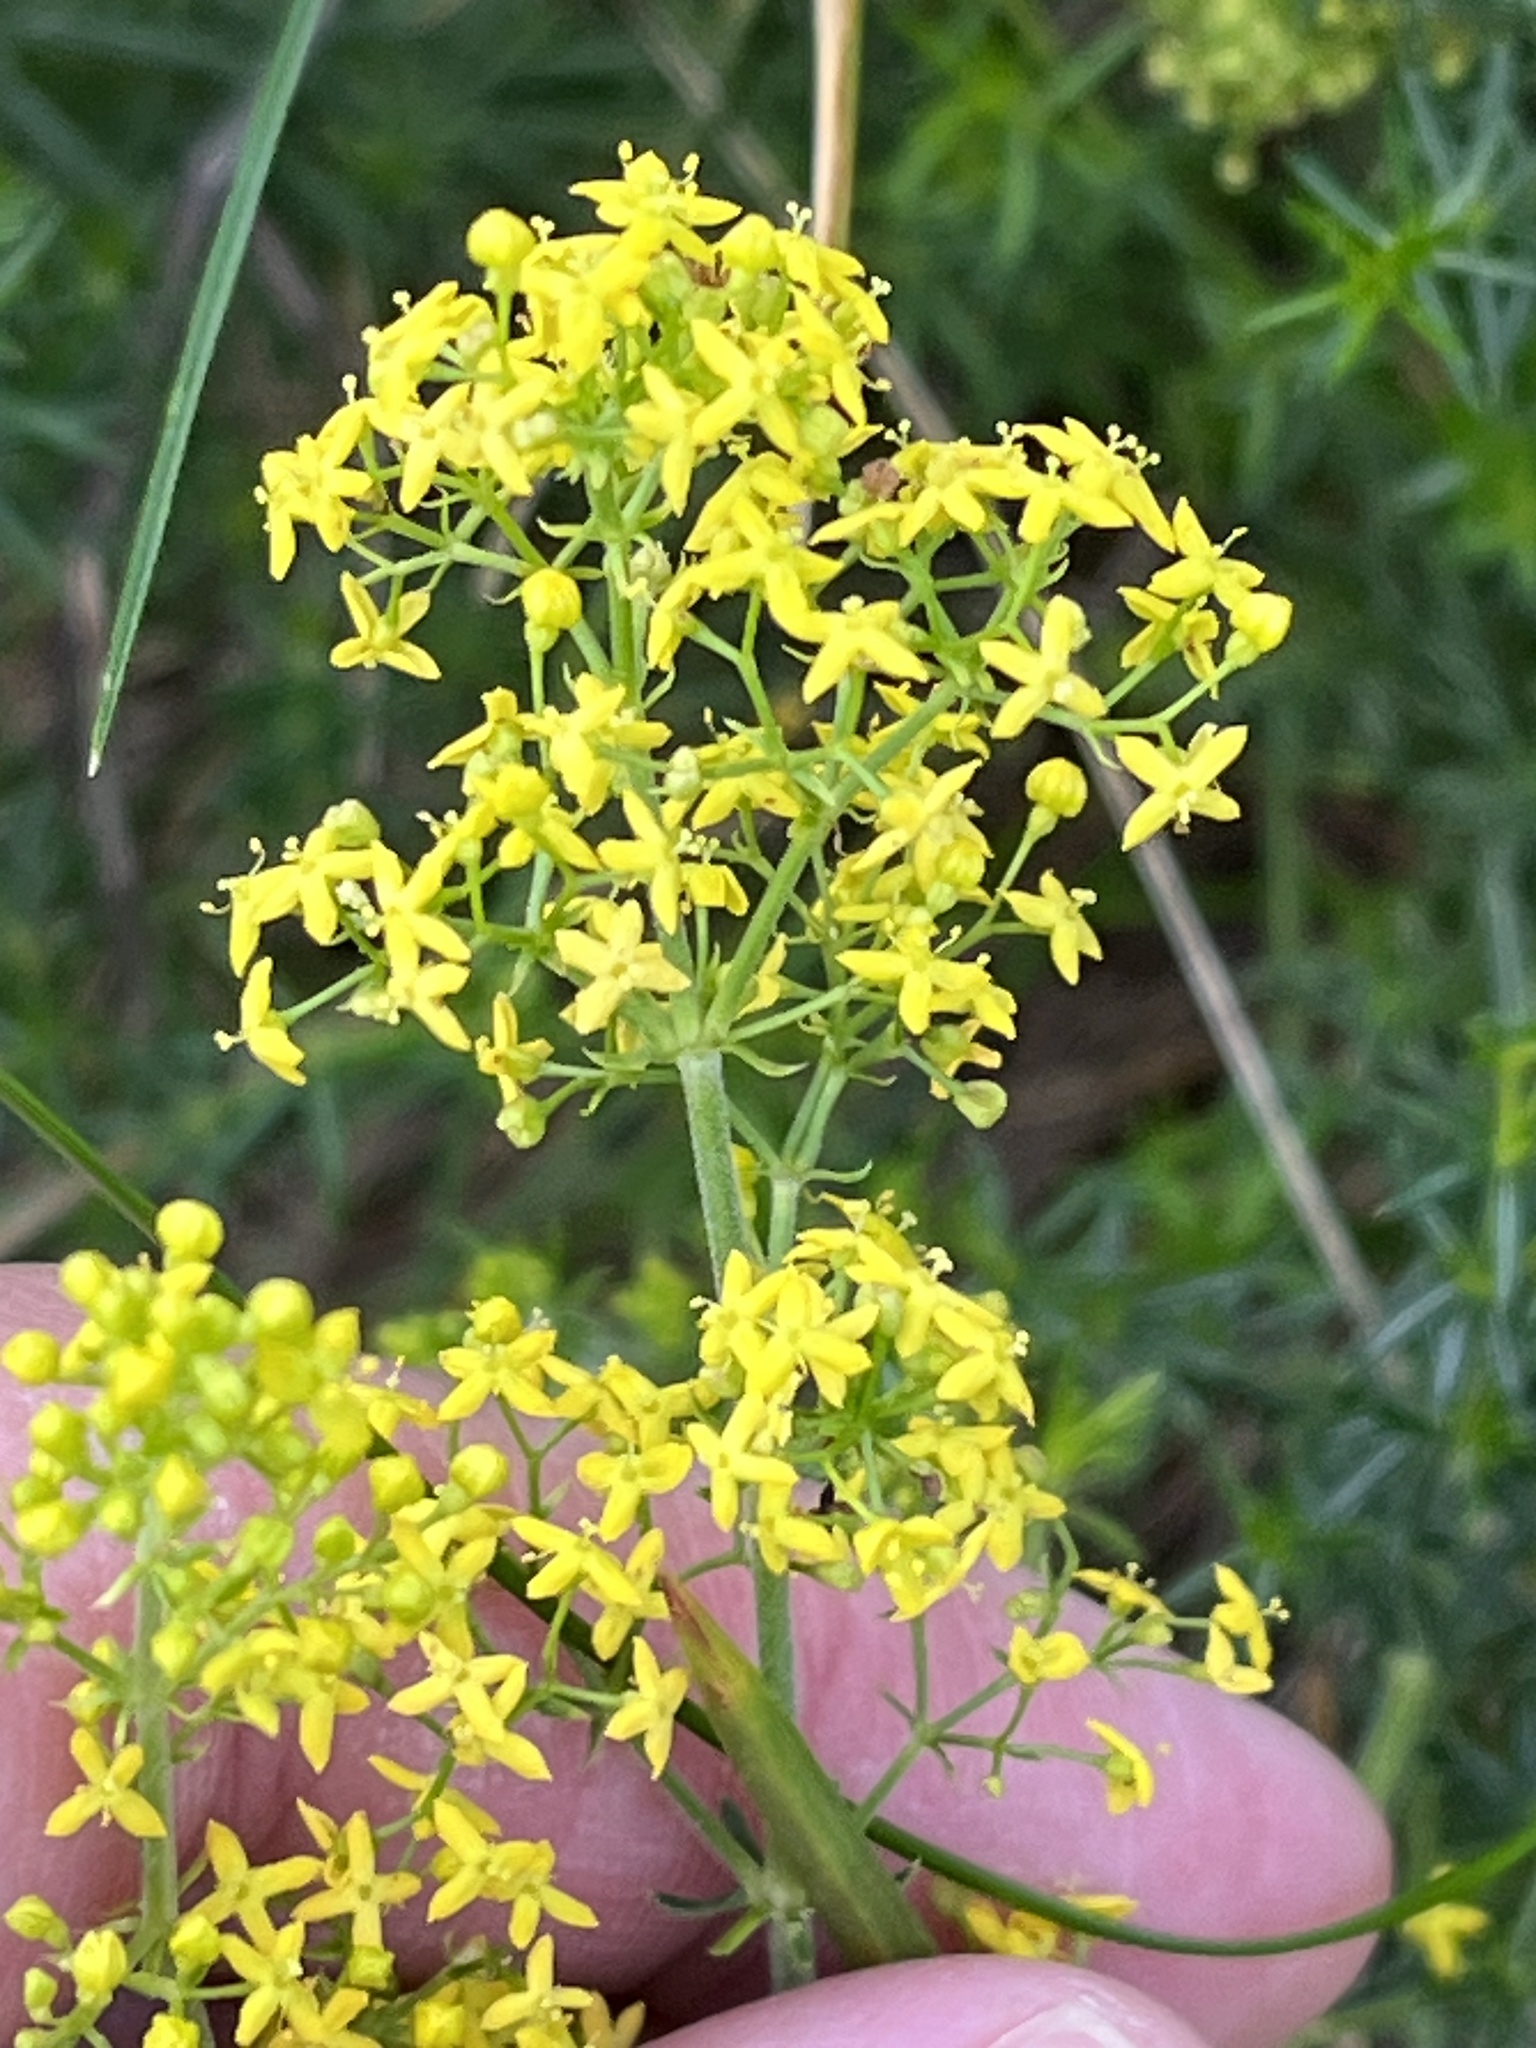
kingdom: Plantae
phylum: Tracheophyta
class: Magnoliopsida
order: Gentianales
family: Rubiaceae
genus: Galium
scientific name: Galium verum
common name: Lady's bedstraw
